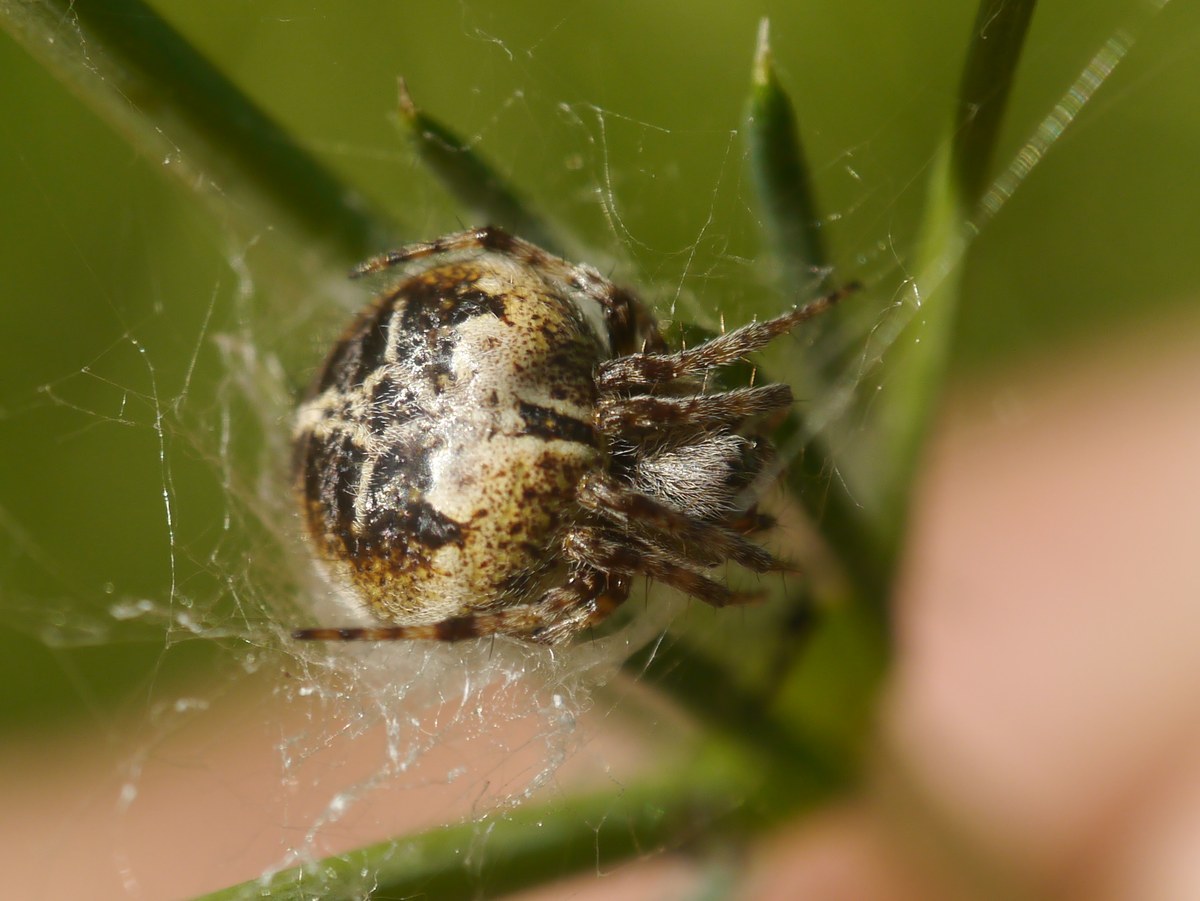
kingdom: Animalia
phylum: Arthropoda
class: Arachnida
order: Araneae
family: Araneidae
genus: Agalenatea
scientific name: Agalenatea redii
